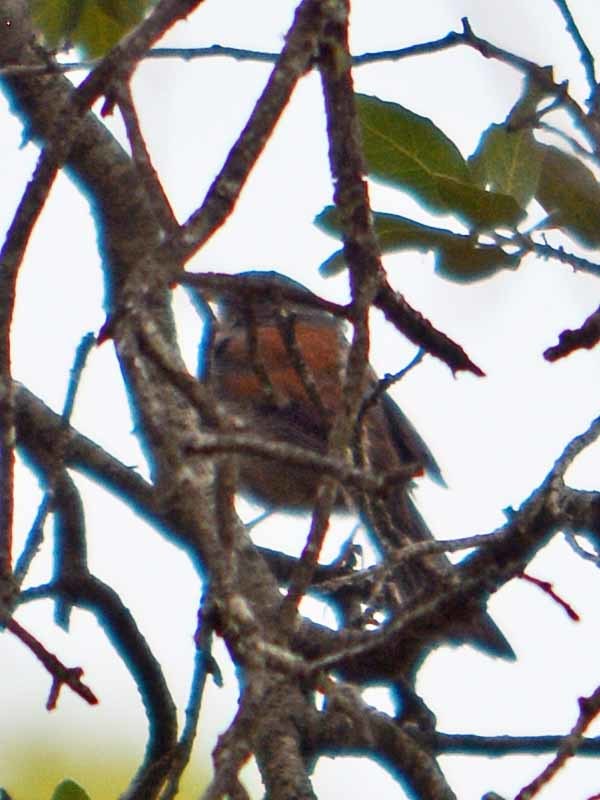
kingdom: Animalia
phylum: Chordata
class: Aves
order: Passeriformes
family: Turdidae
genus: Turdus
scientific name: Turdus rufopalliatus
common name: Rufous-backed robin
